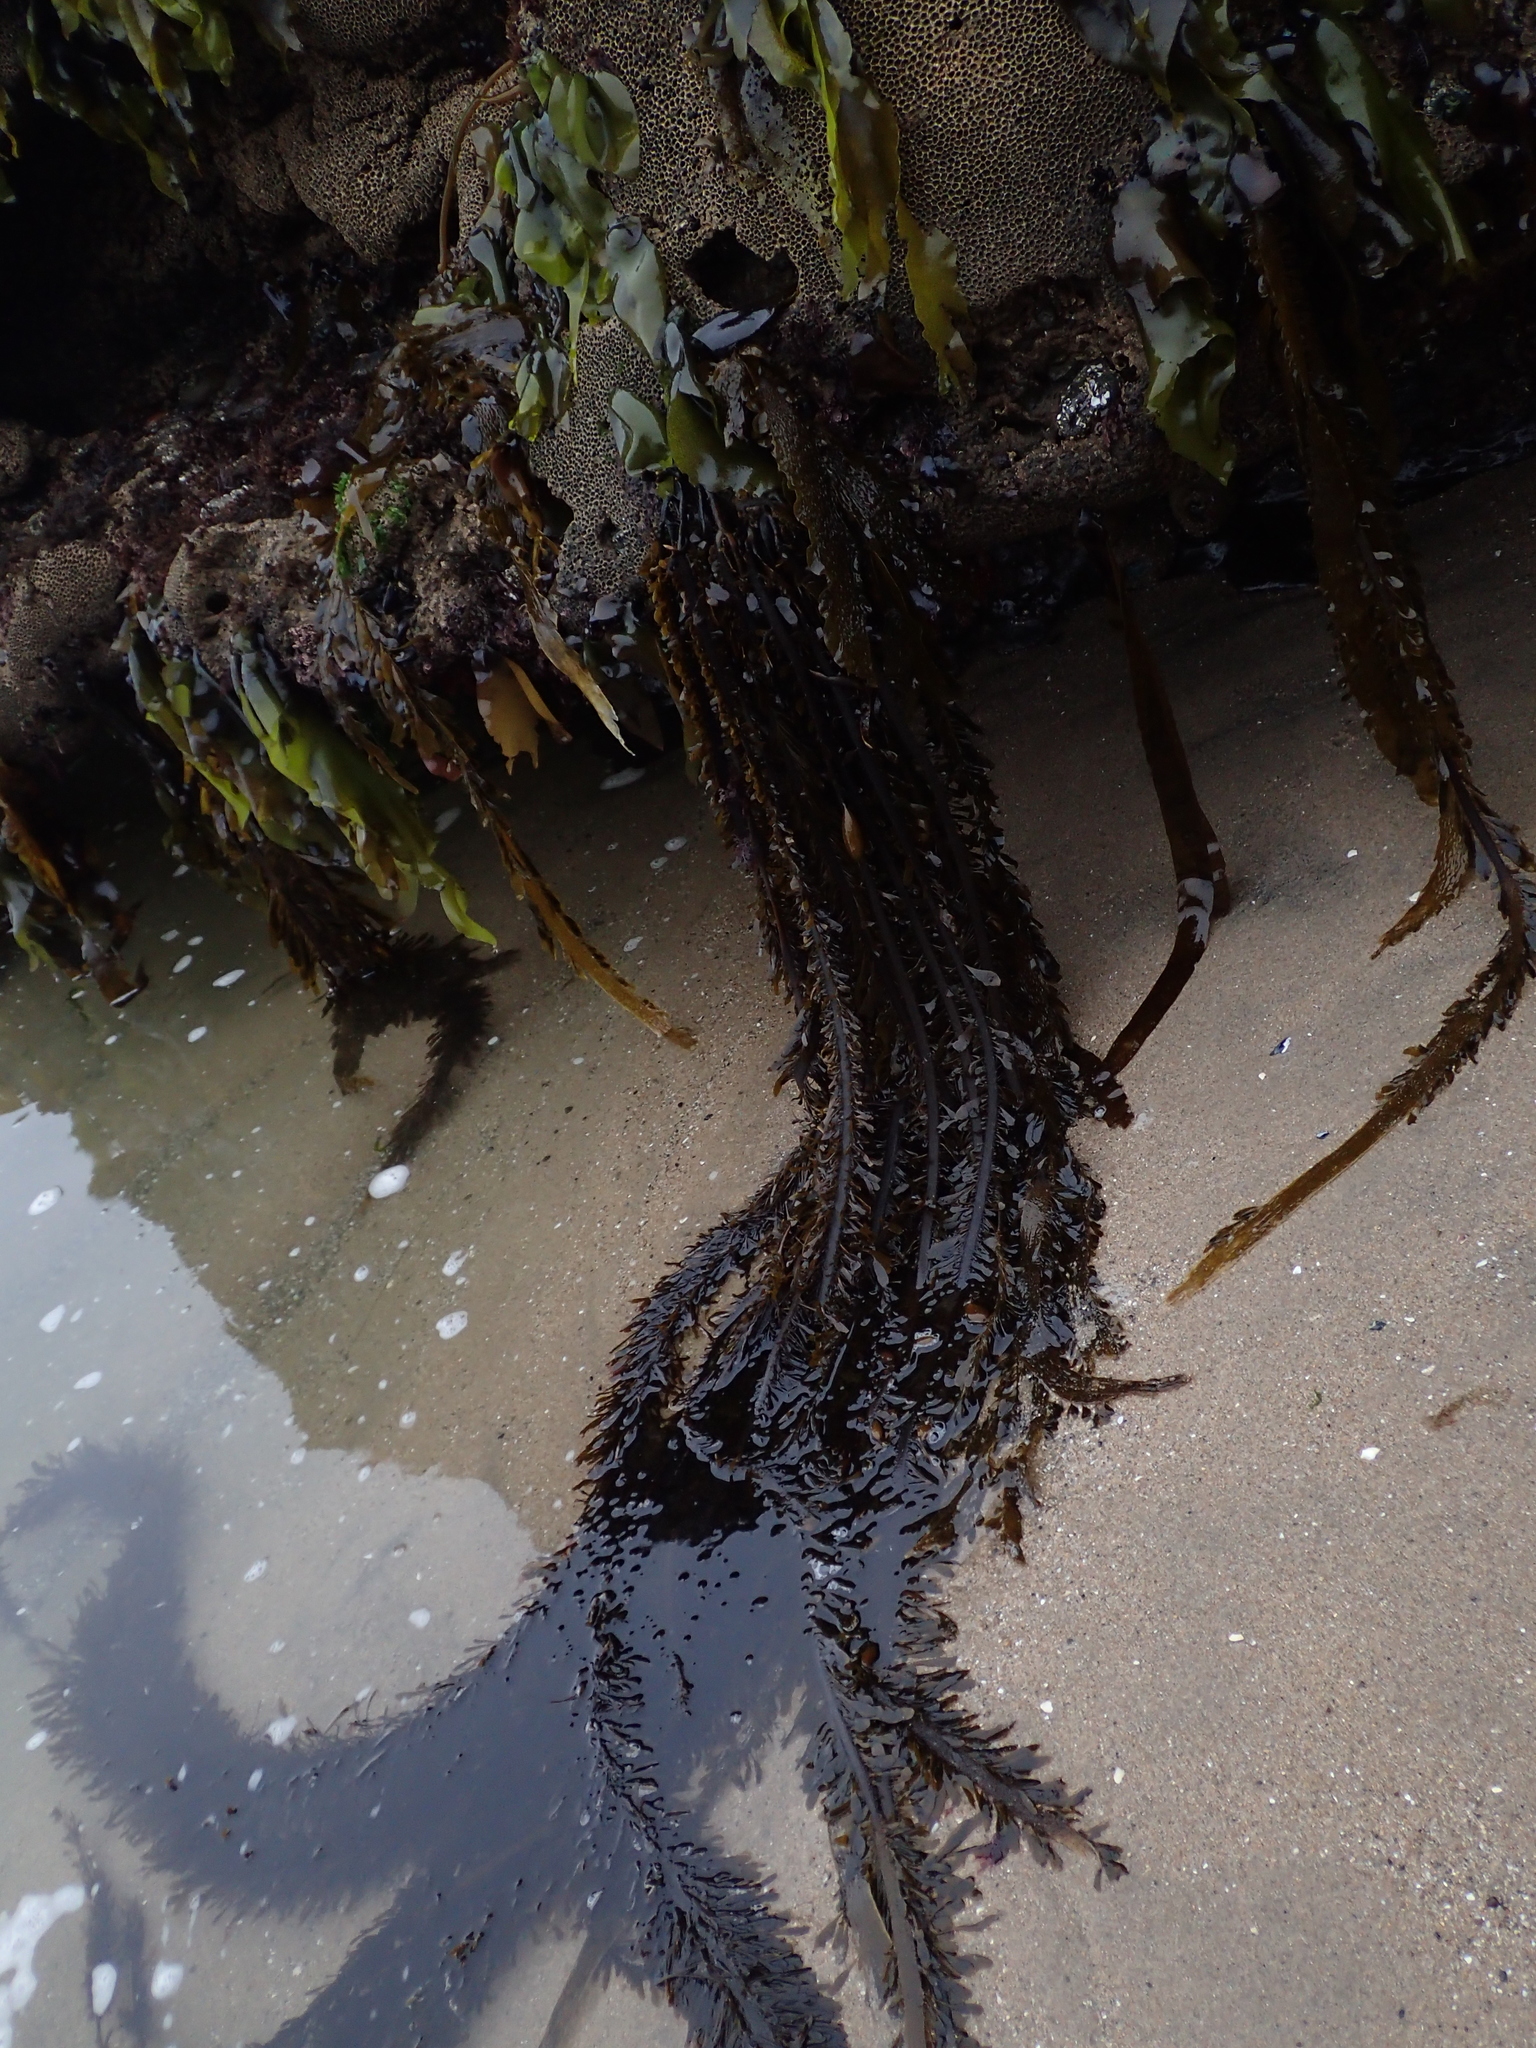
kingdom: Chromista
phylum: Ochrophyta
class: Phaeophyceae
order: Laminariales
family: Lessoniaceae
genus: Egregia
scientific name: Egregia menziesii
